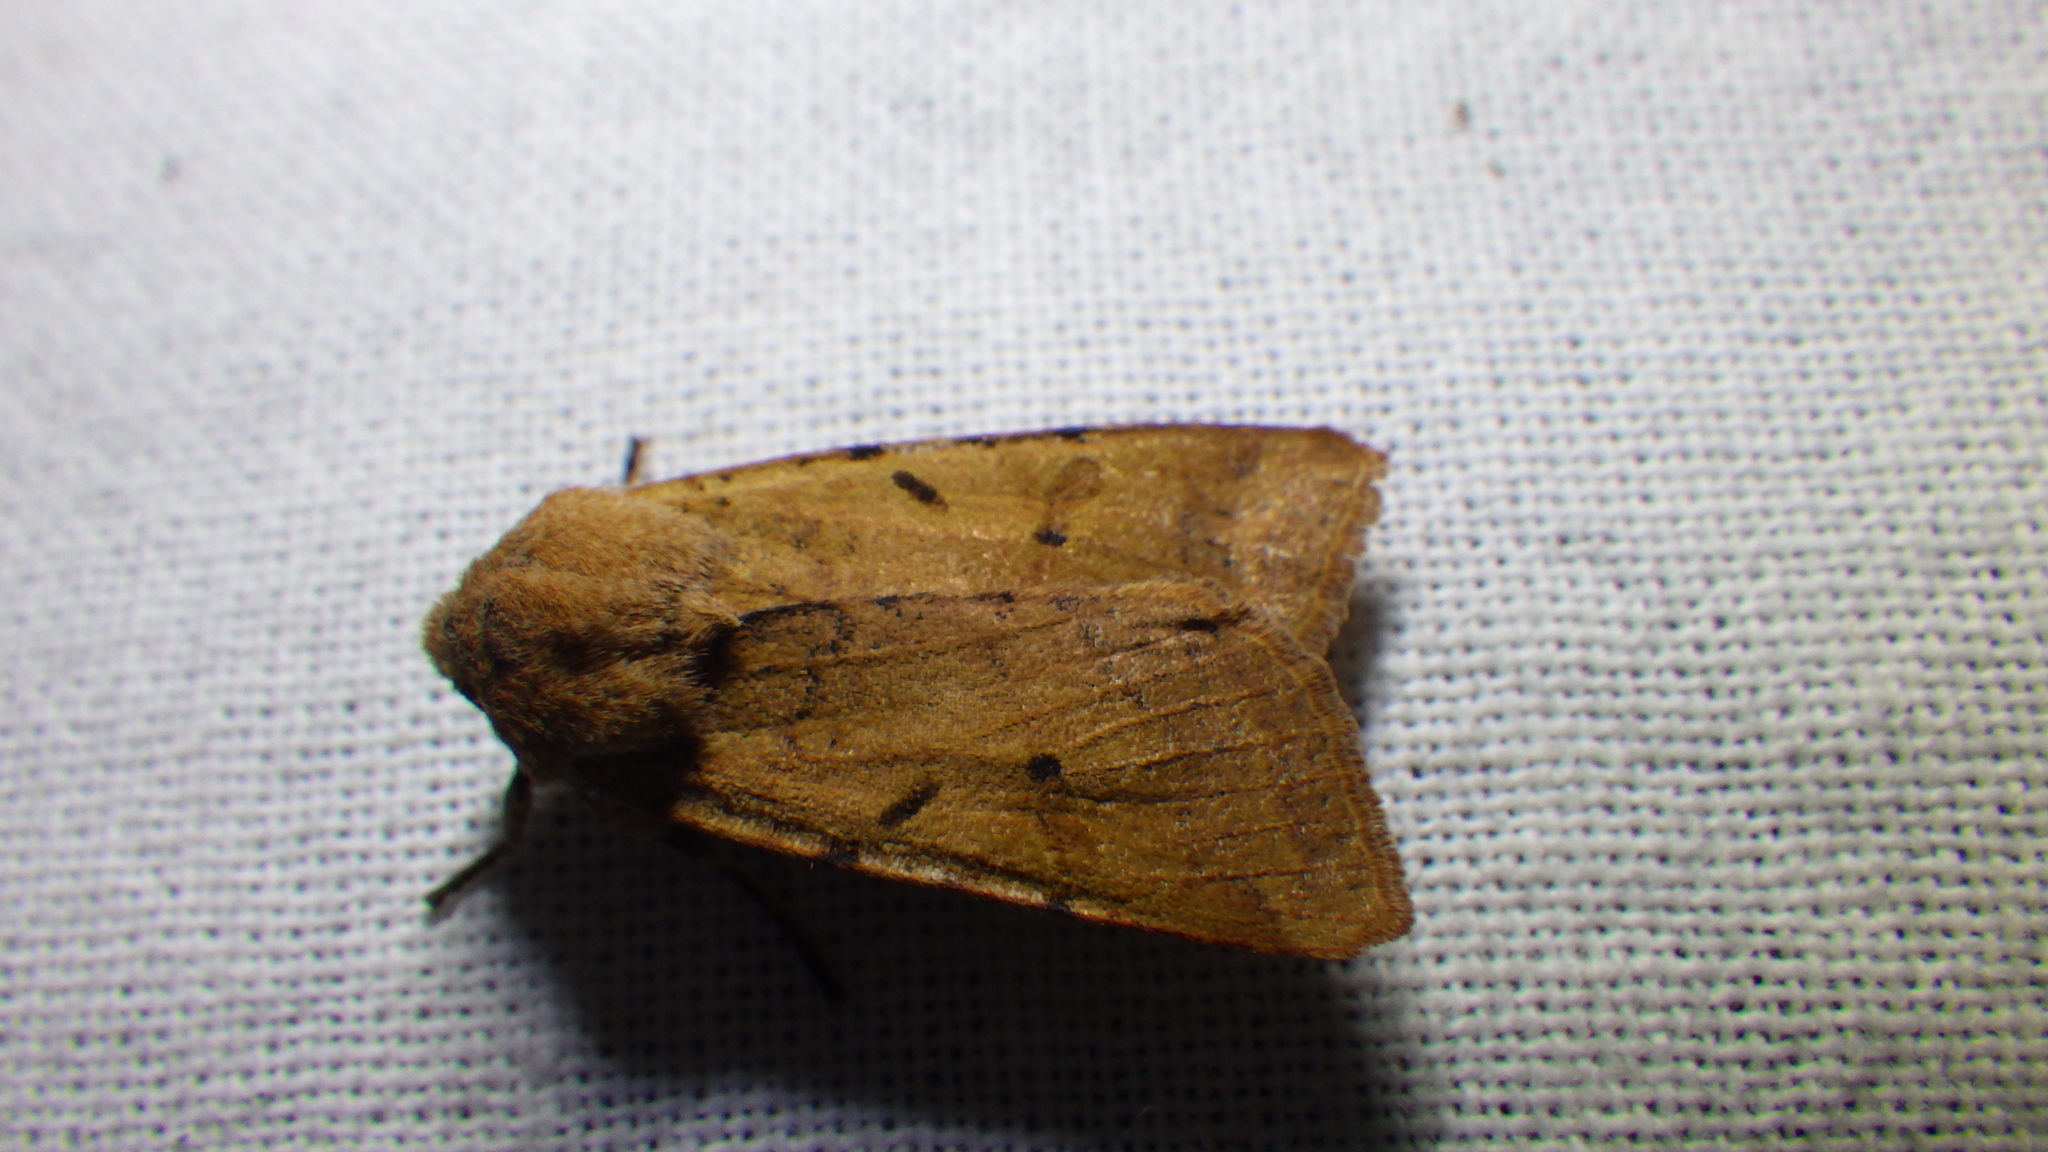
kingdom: Animalia
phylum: Arthropoda
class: Insecta
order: Lepidoptera
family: Noctuidae
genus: Agrochola
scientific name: Agrochola lychnidis
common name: Beaded chestnut
